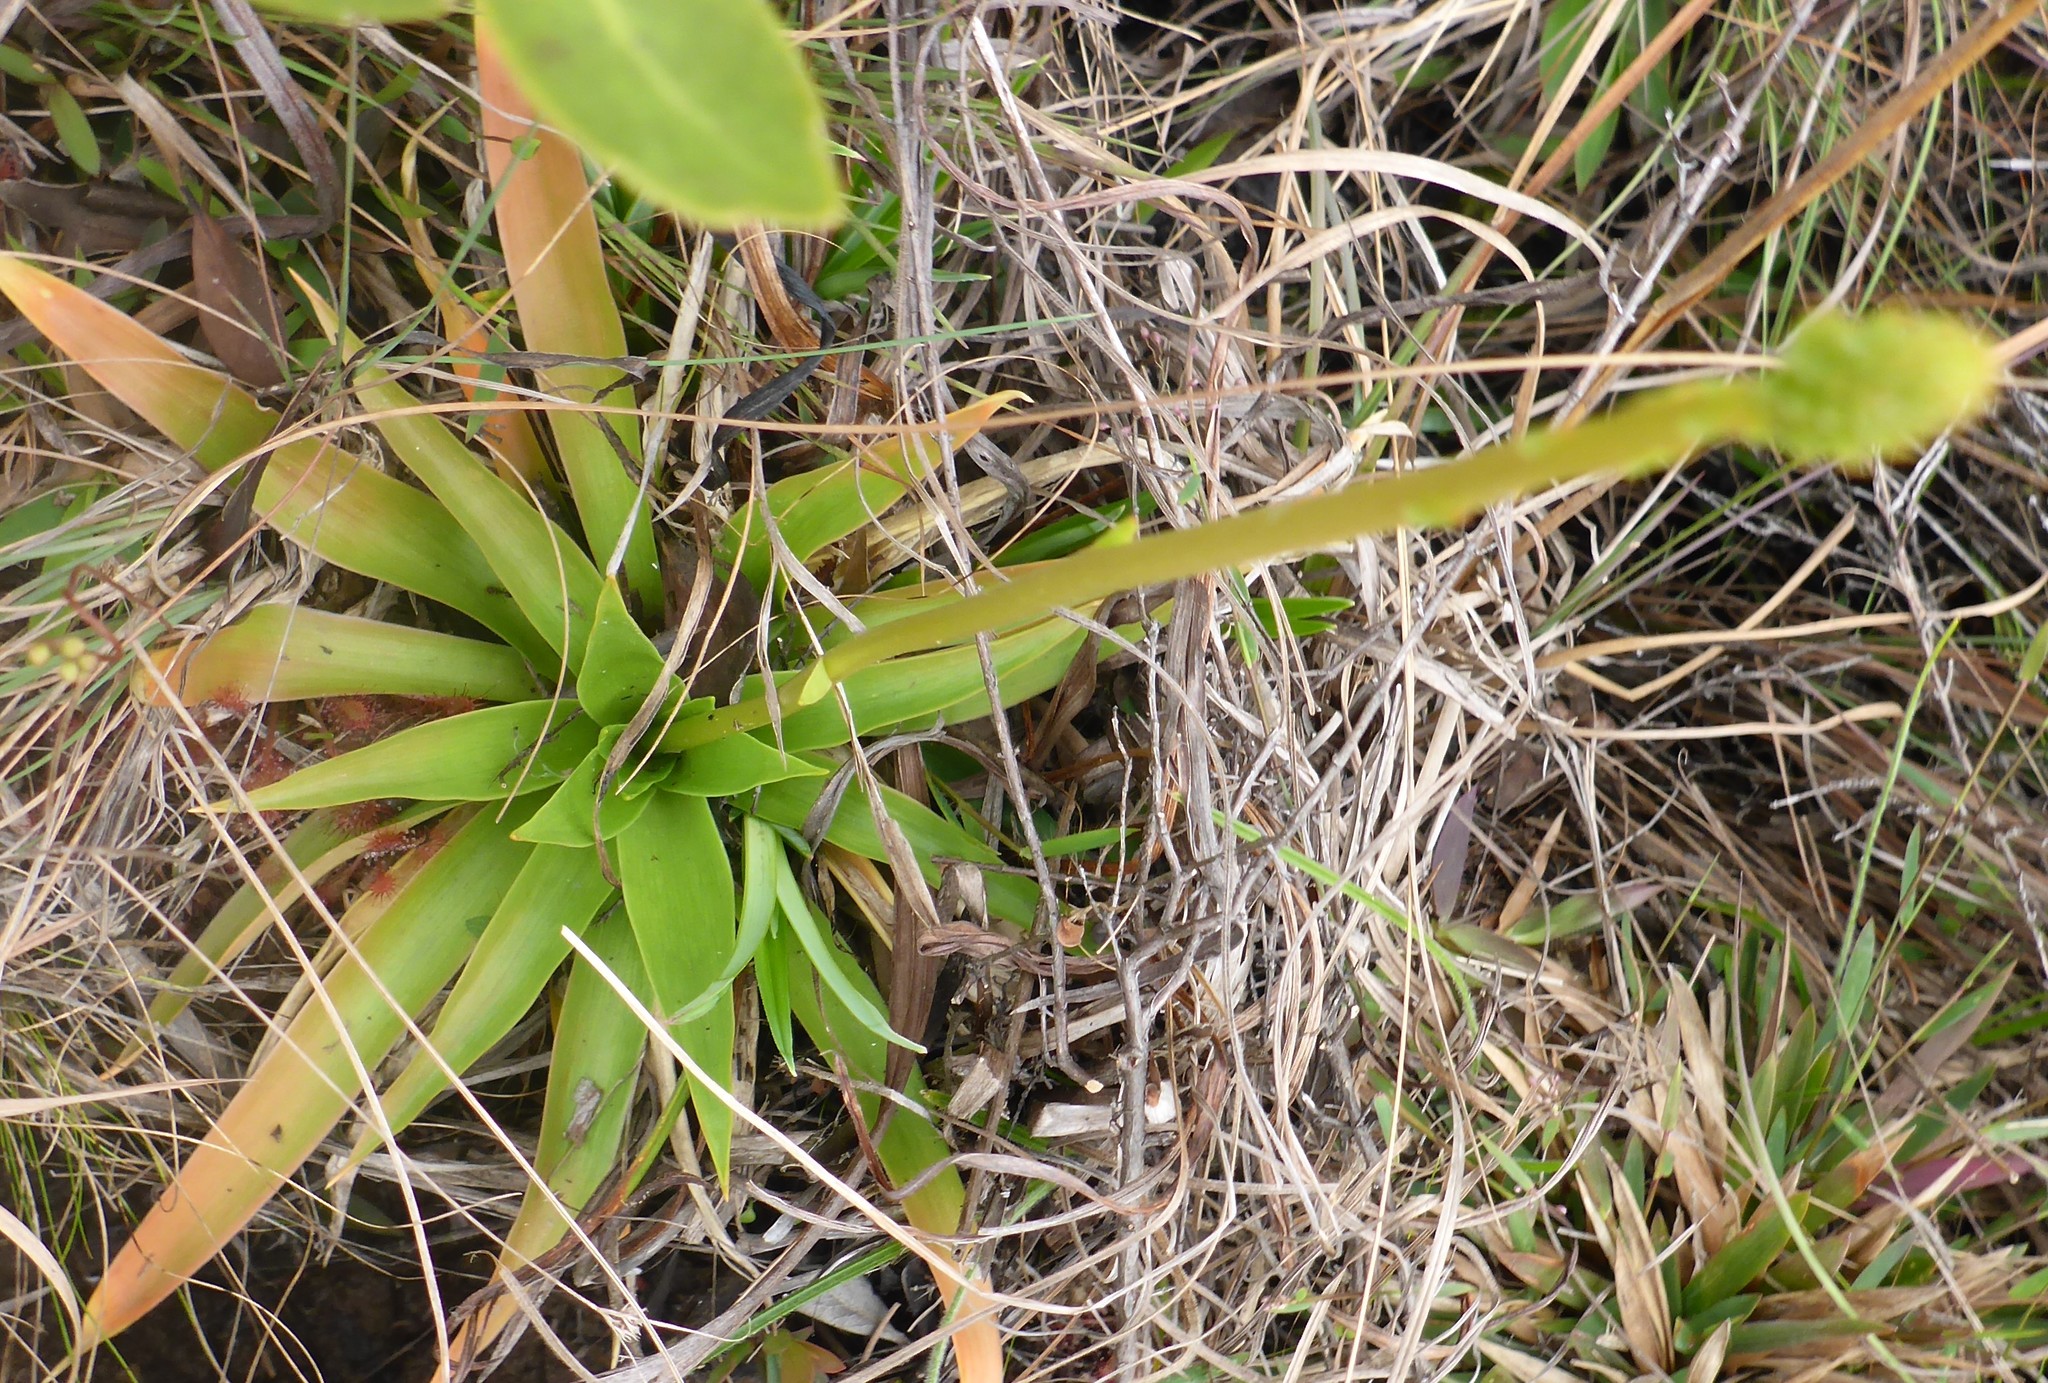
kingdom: Plantae
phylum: Tracheophyta
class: Liliopsida
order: Dioscoreales
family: Nartheciaceae
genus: Aletris
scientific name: Aletris lutea
